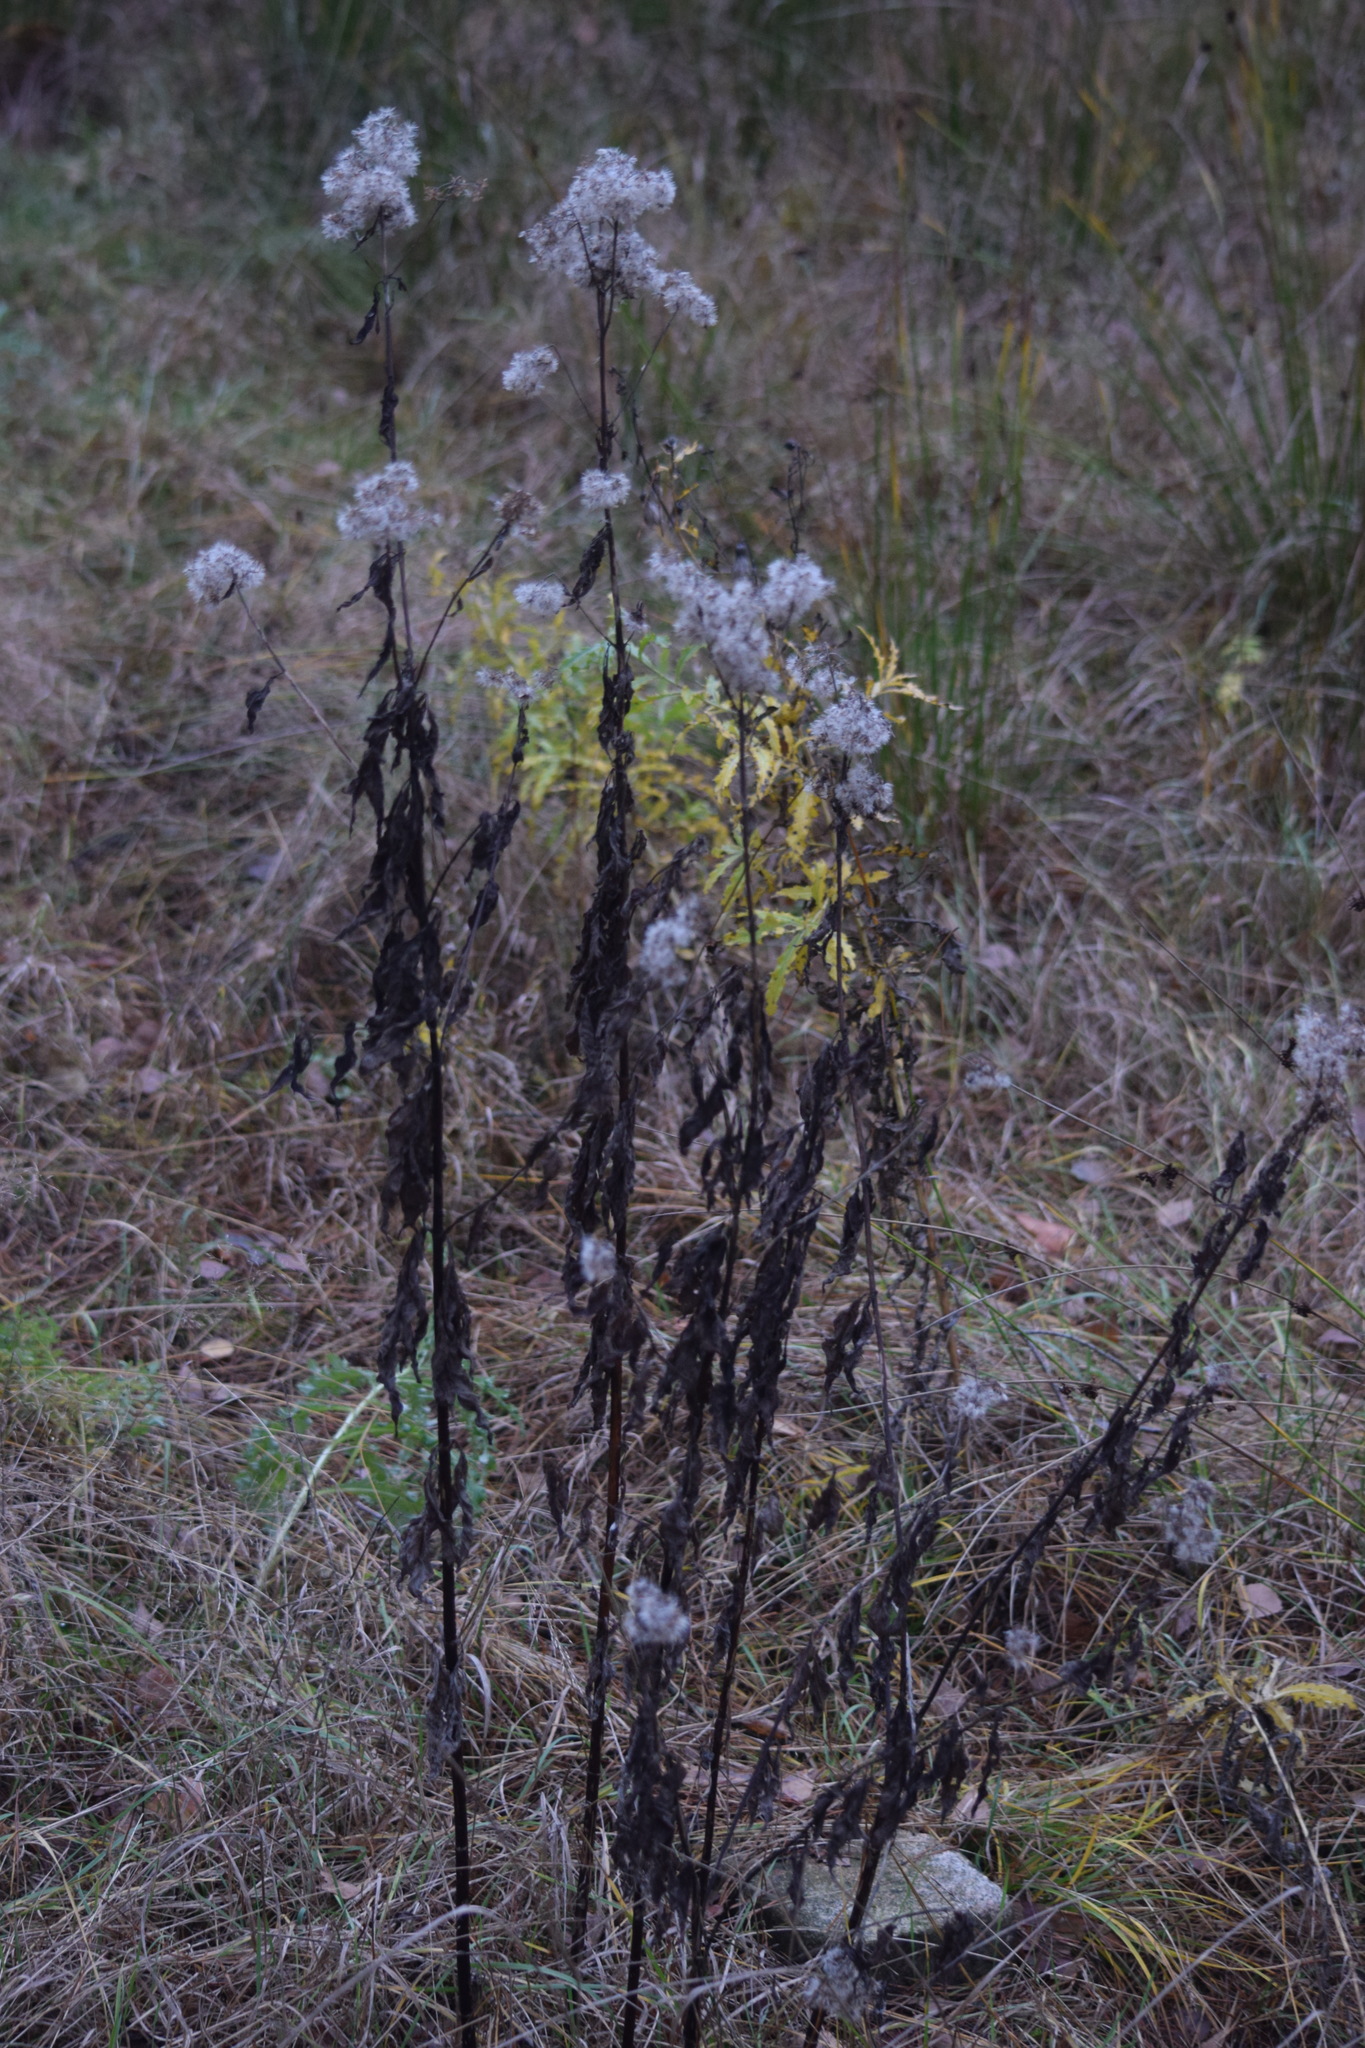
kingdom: Plantae
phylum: Tracheophyta
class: Magnoliopsida
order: Asterales
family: Asteraceae
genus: Eupatorium
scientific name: Eupatorium cannabinum
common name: Hemp-agrimony
